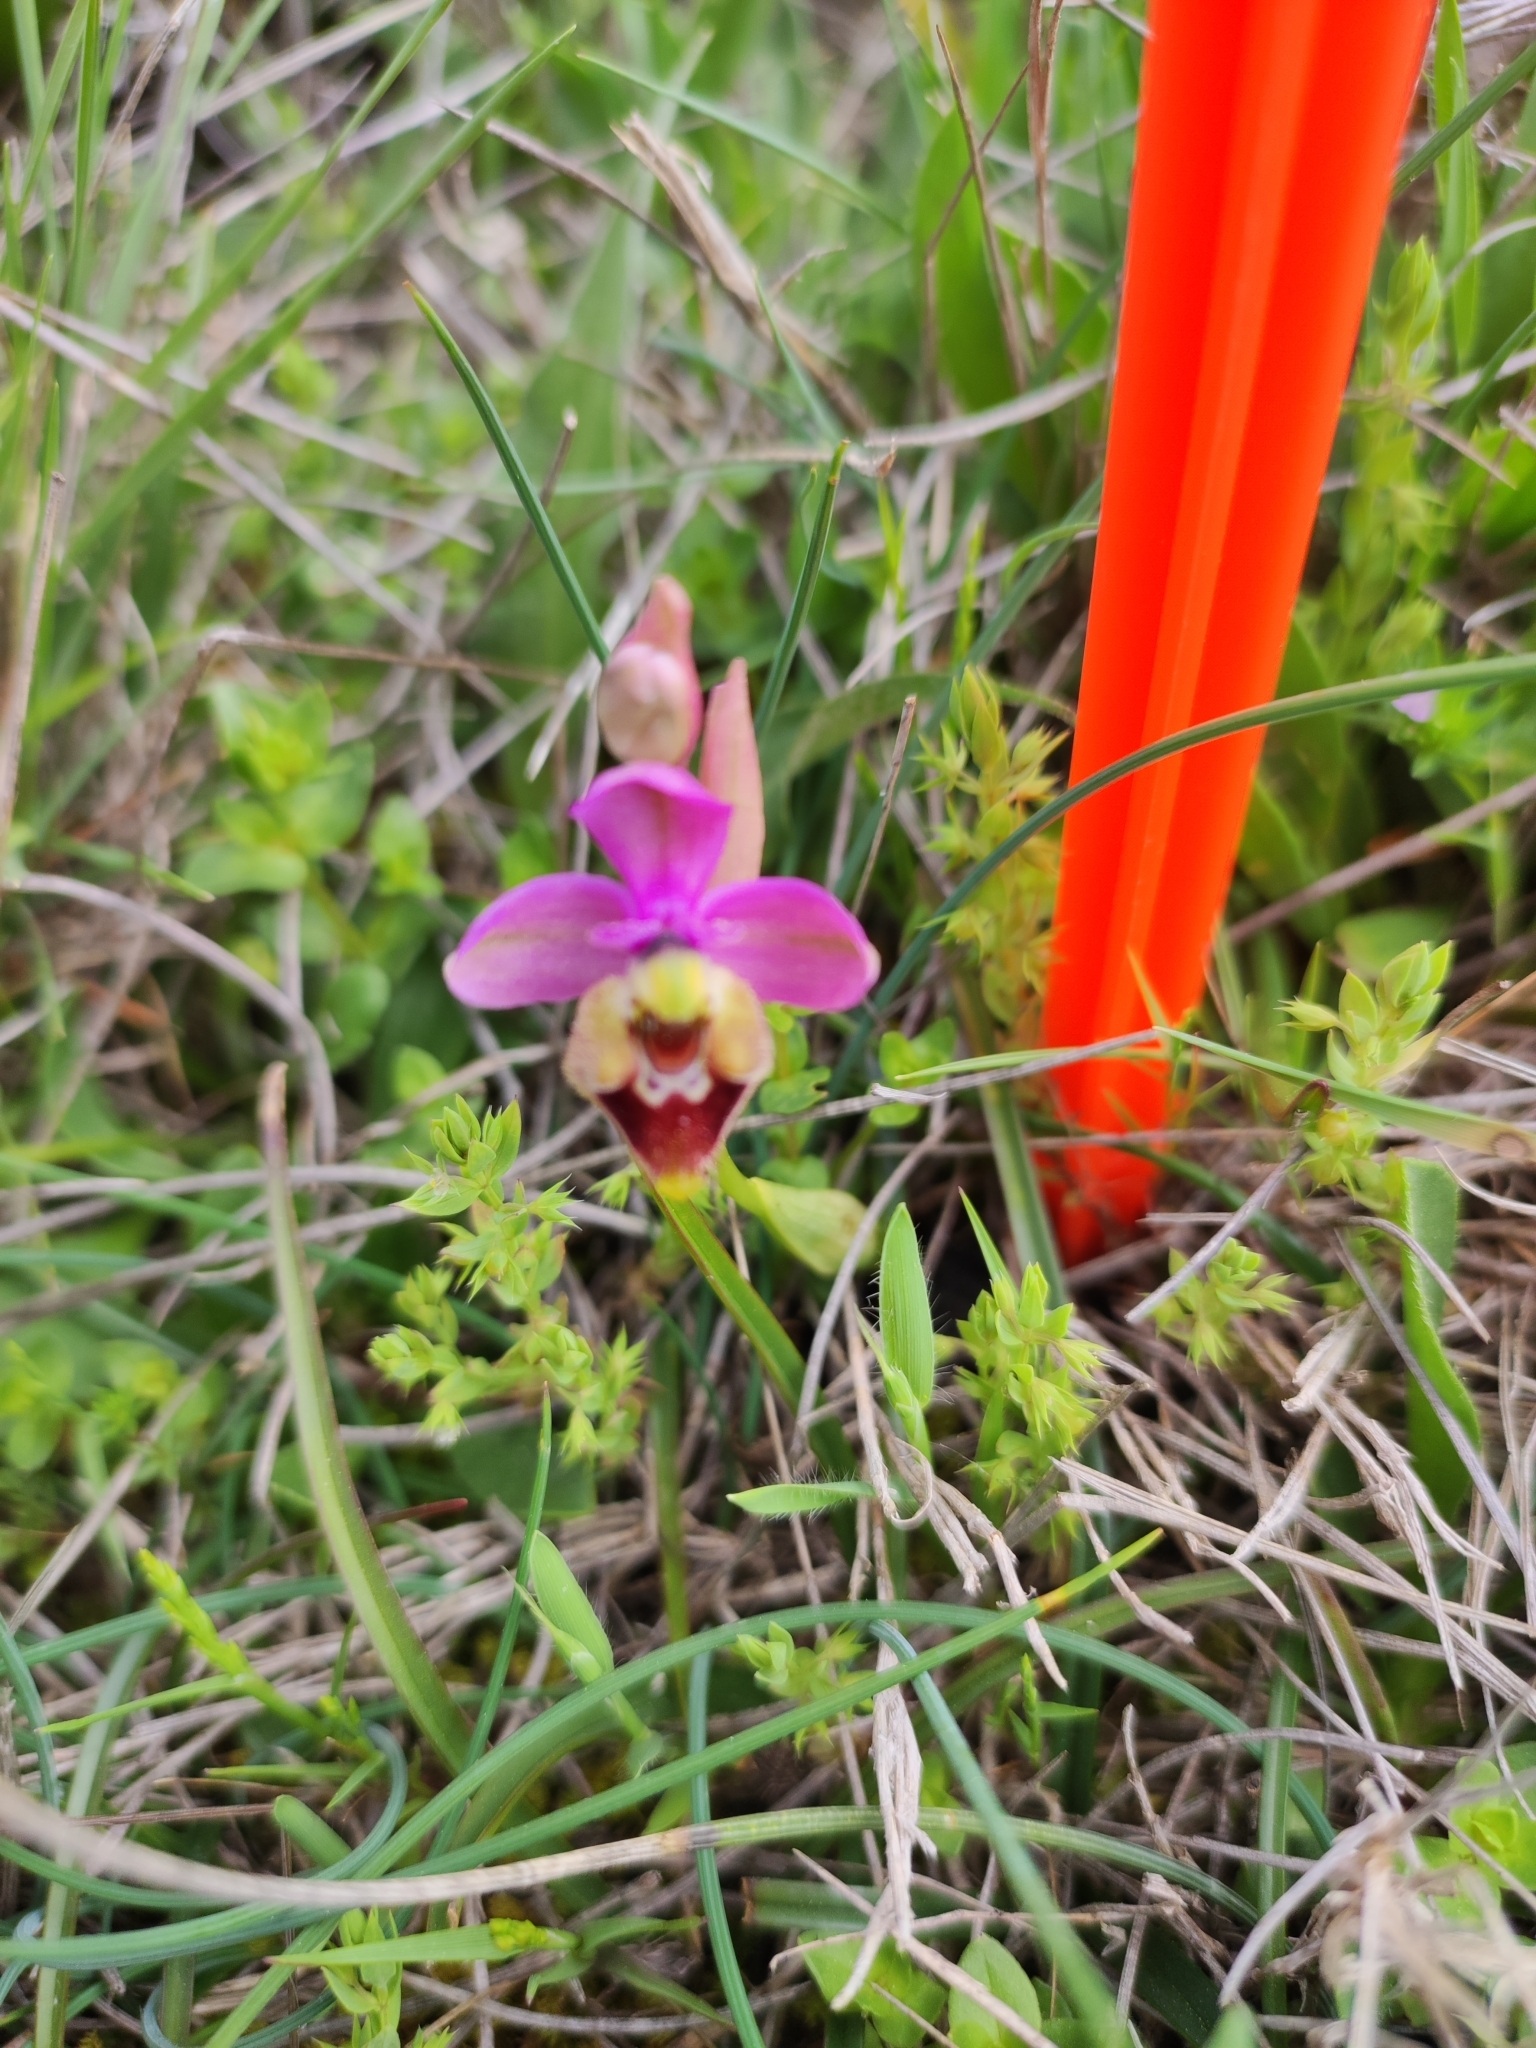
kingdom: Plantae
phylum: Tracheophyta
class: Liliopsida
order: Asparagales
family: Orchidaceae
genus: Ophrys
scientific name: Ophrys tenthredinifera
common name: Sawfly orchid
